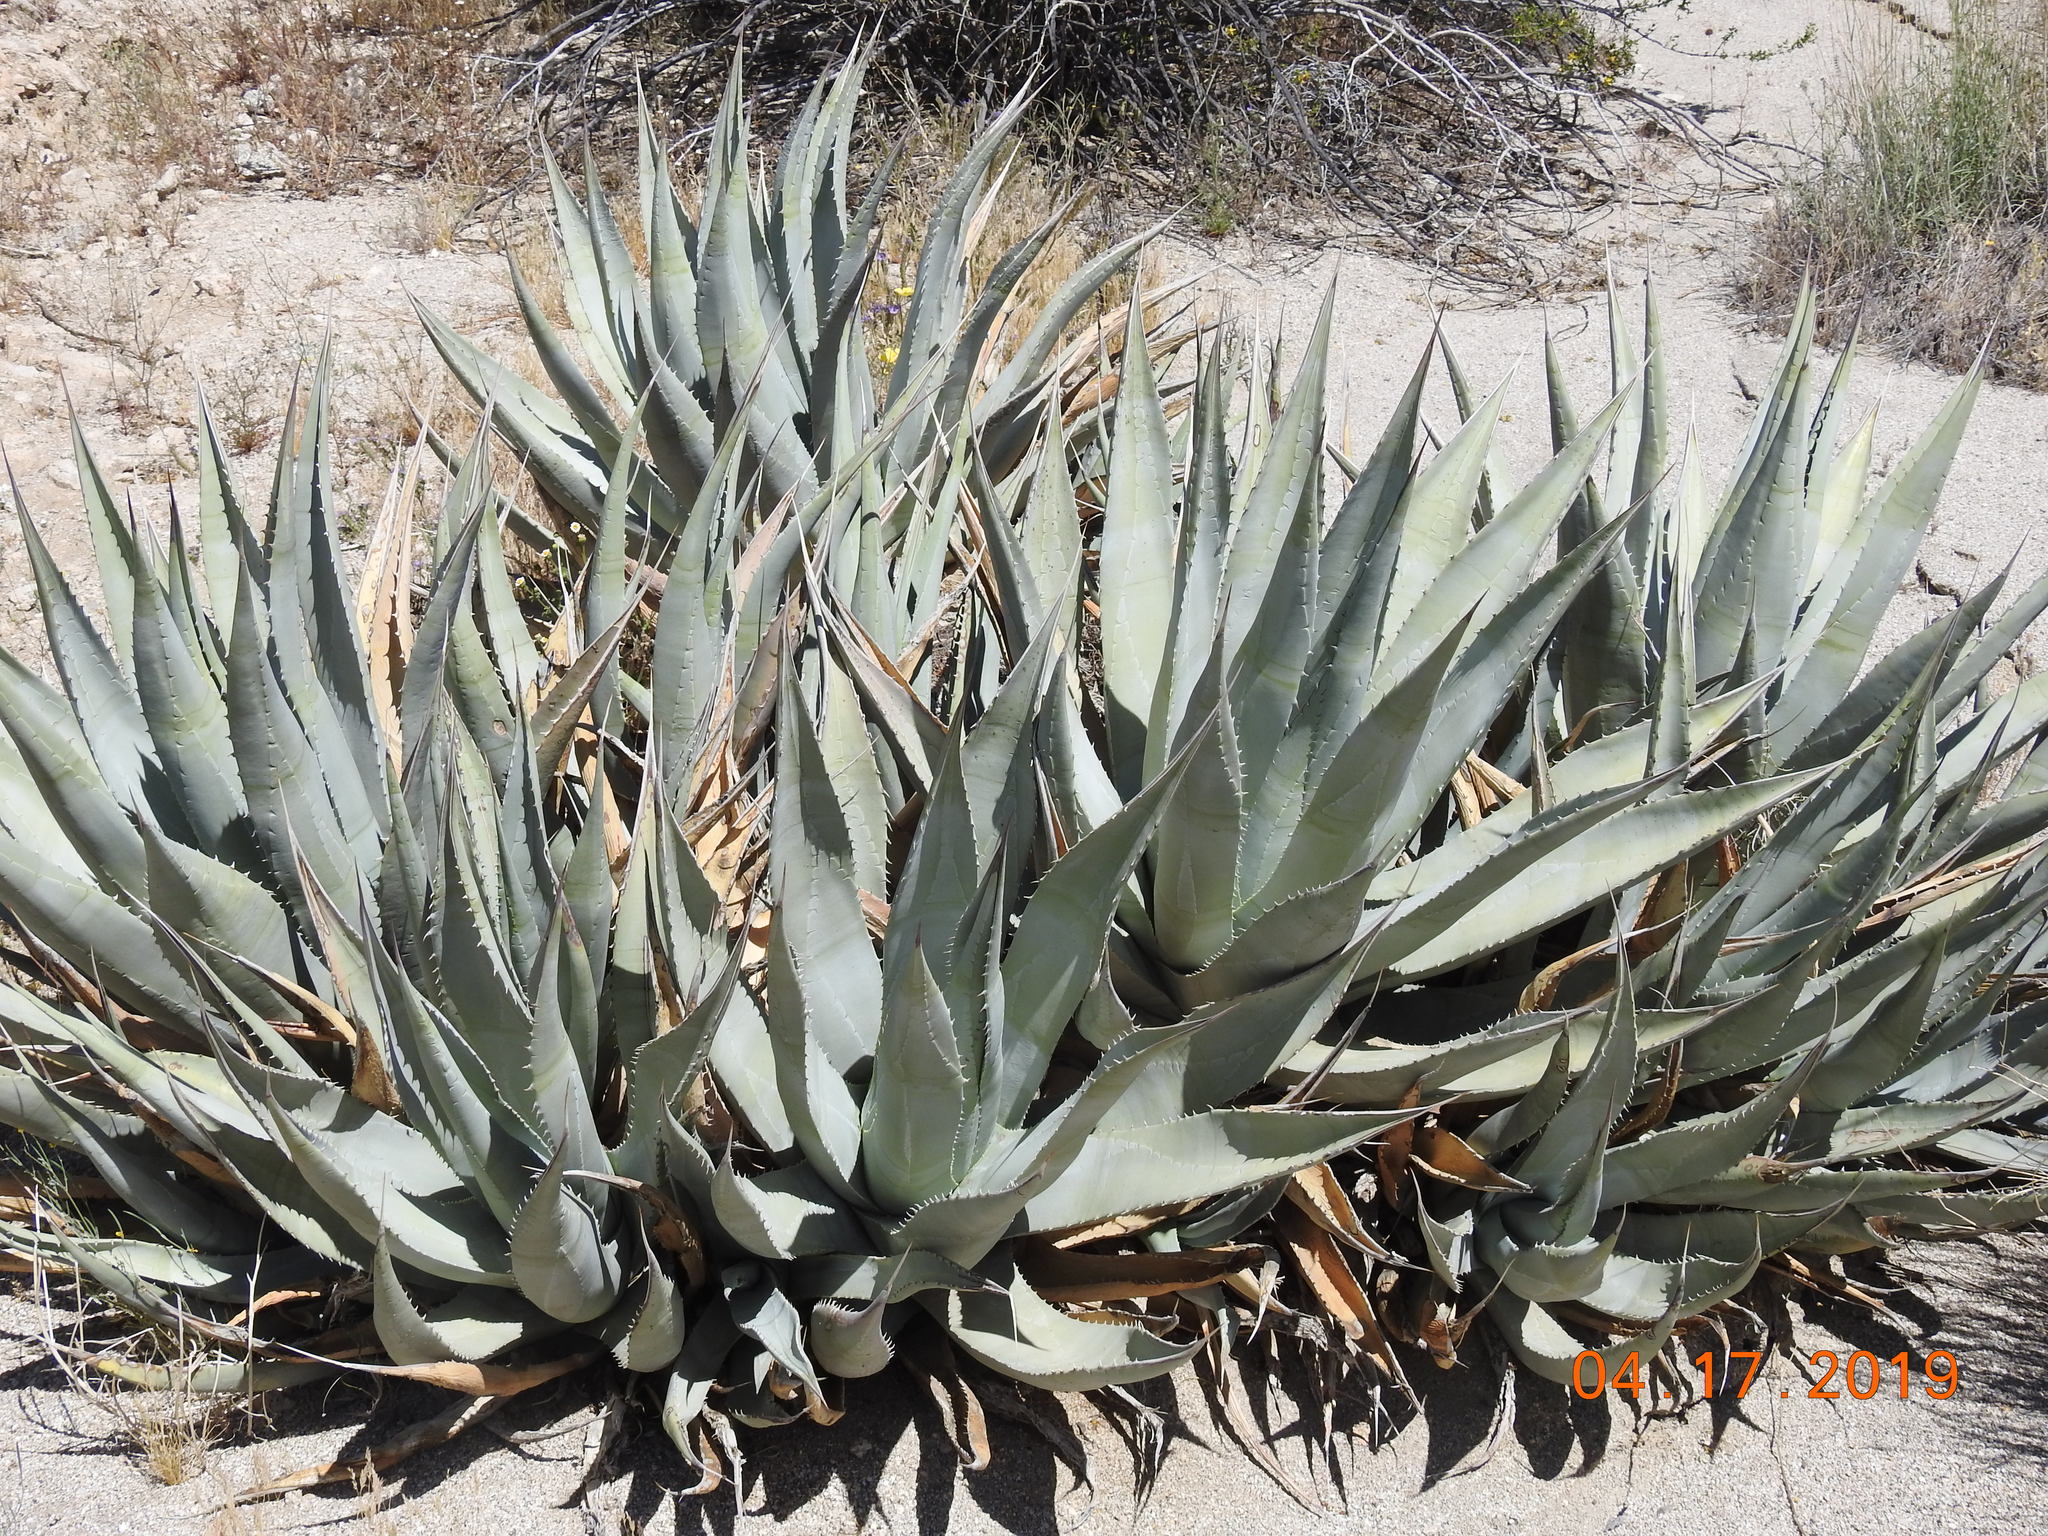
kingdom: Plantae
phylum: Tracheophyta
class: Liliopsida
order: Asparagales
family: Asparagaceae
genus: Agave
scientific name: Agave deserti
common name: Desert agave
